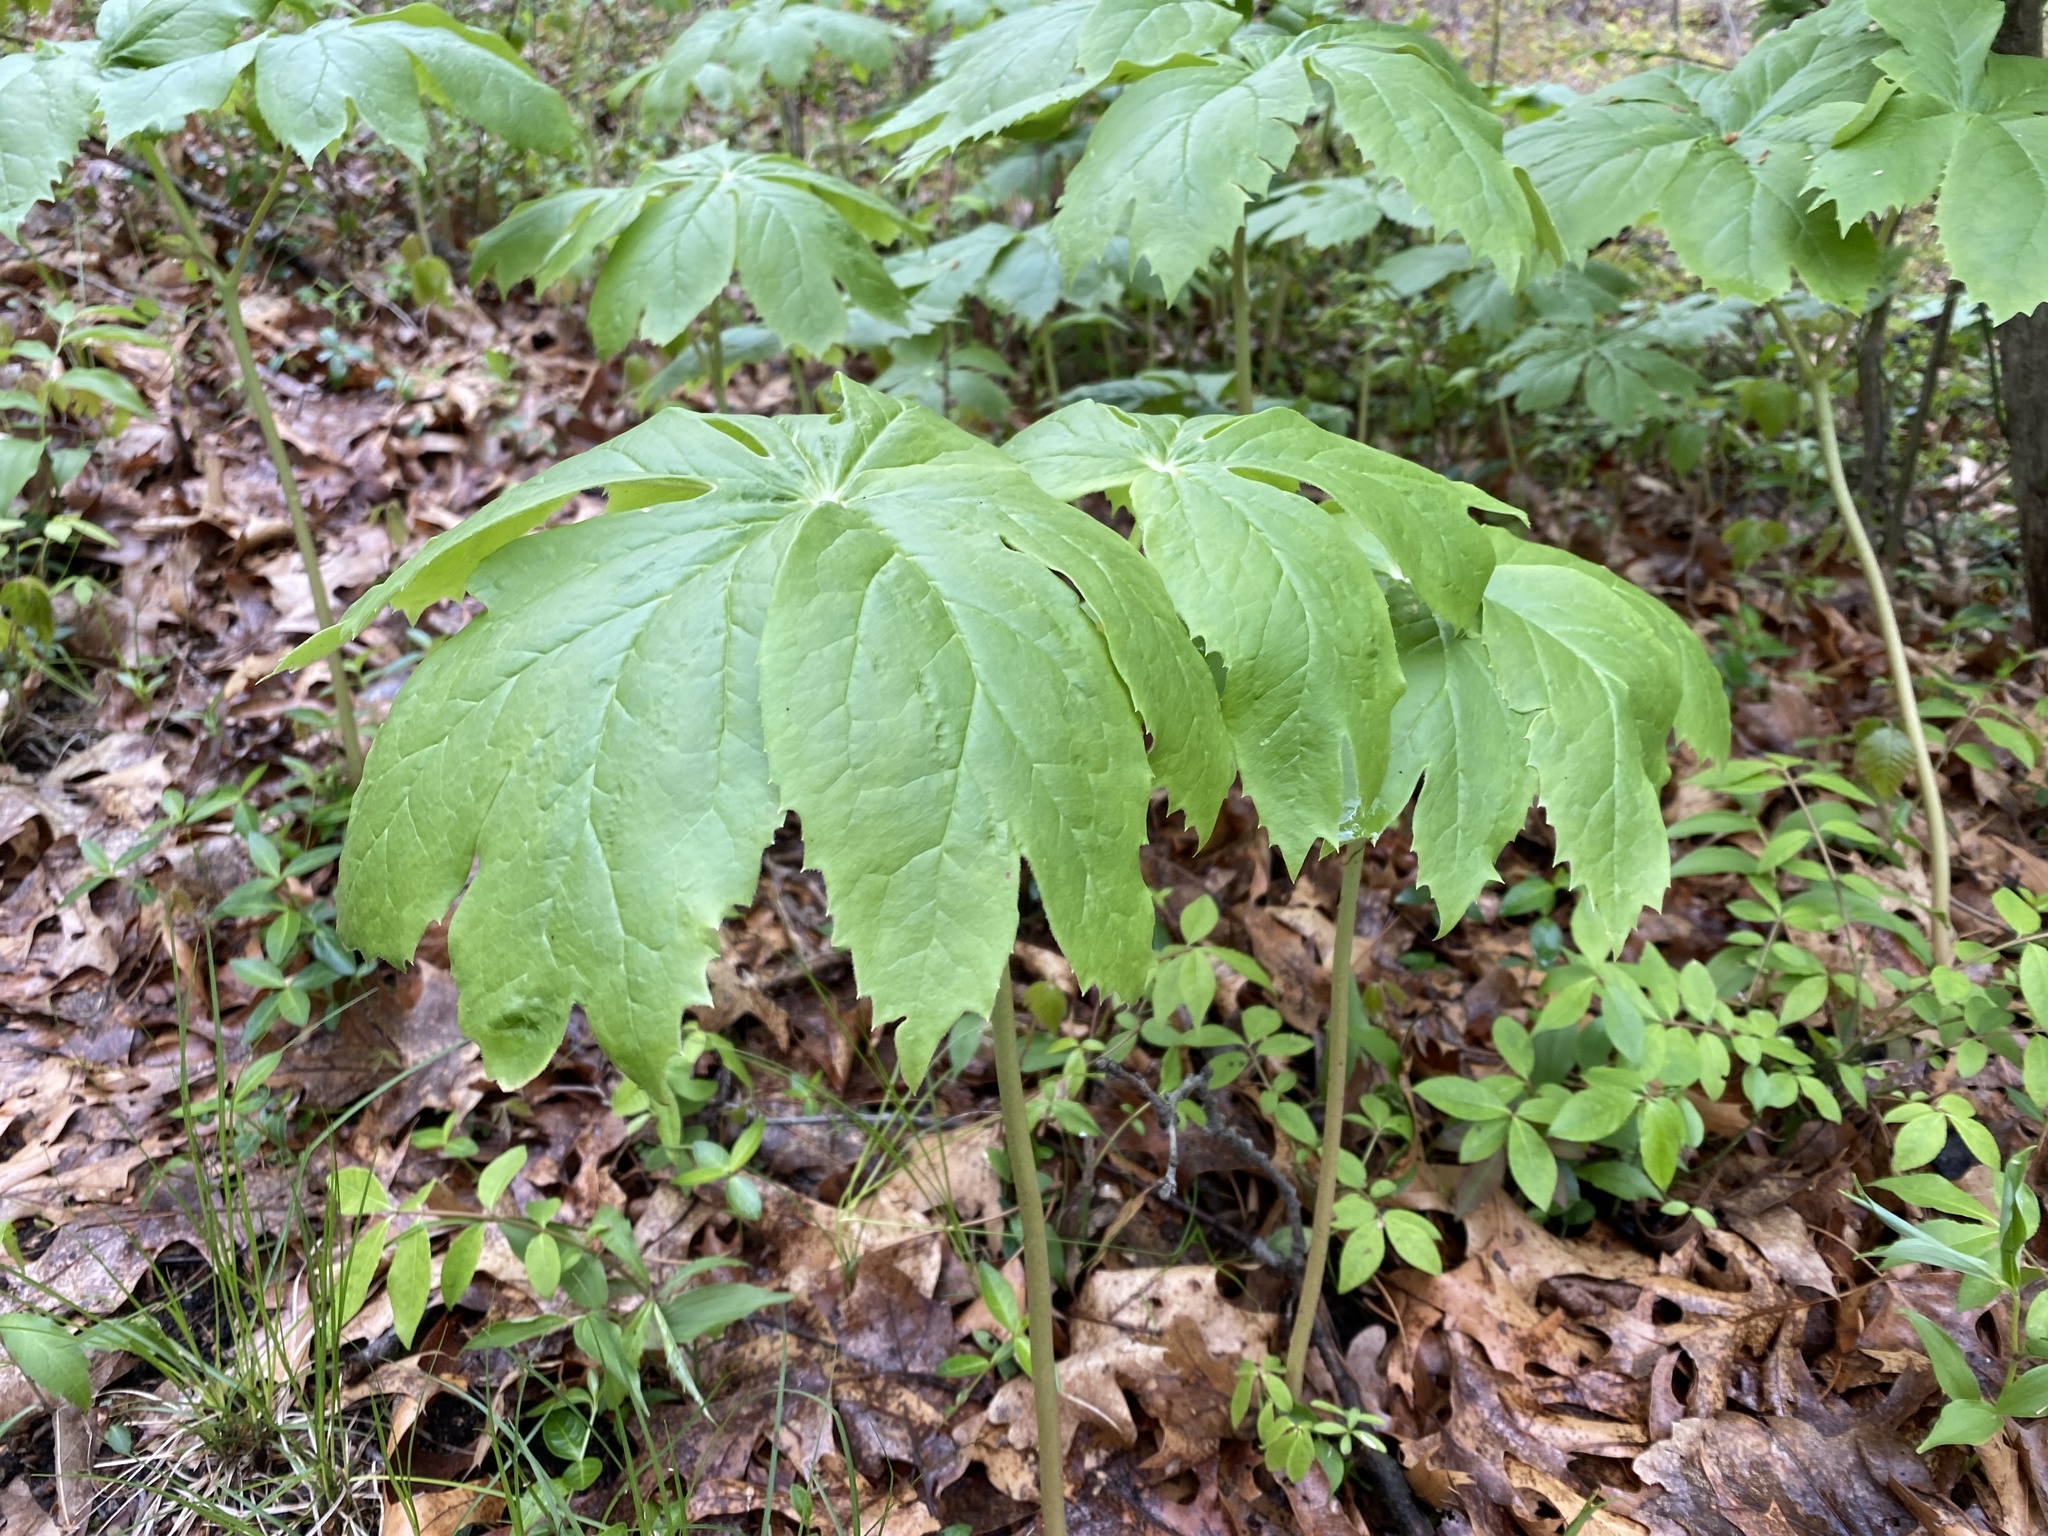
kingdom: Plantae
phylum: Tracheophyta
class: Magnoliopsida
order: Ranunculales
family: Berberidaceae
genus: Podophyllum
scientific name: Podophyllum peltatum
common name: Wild mandrake
